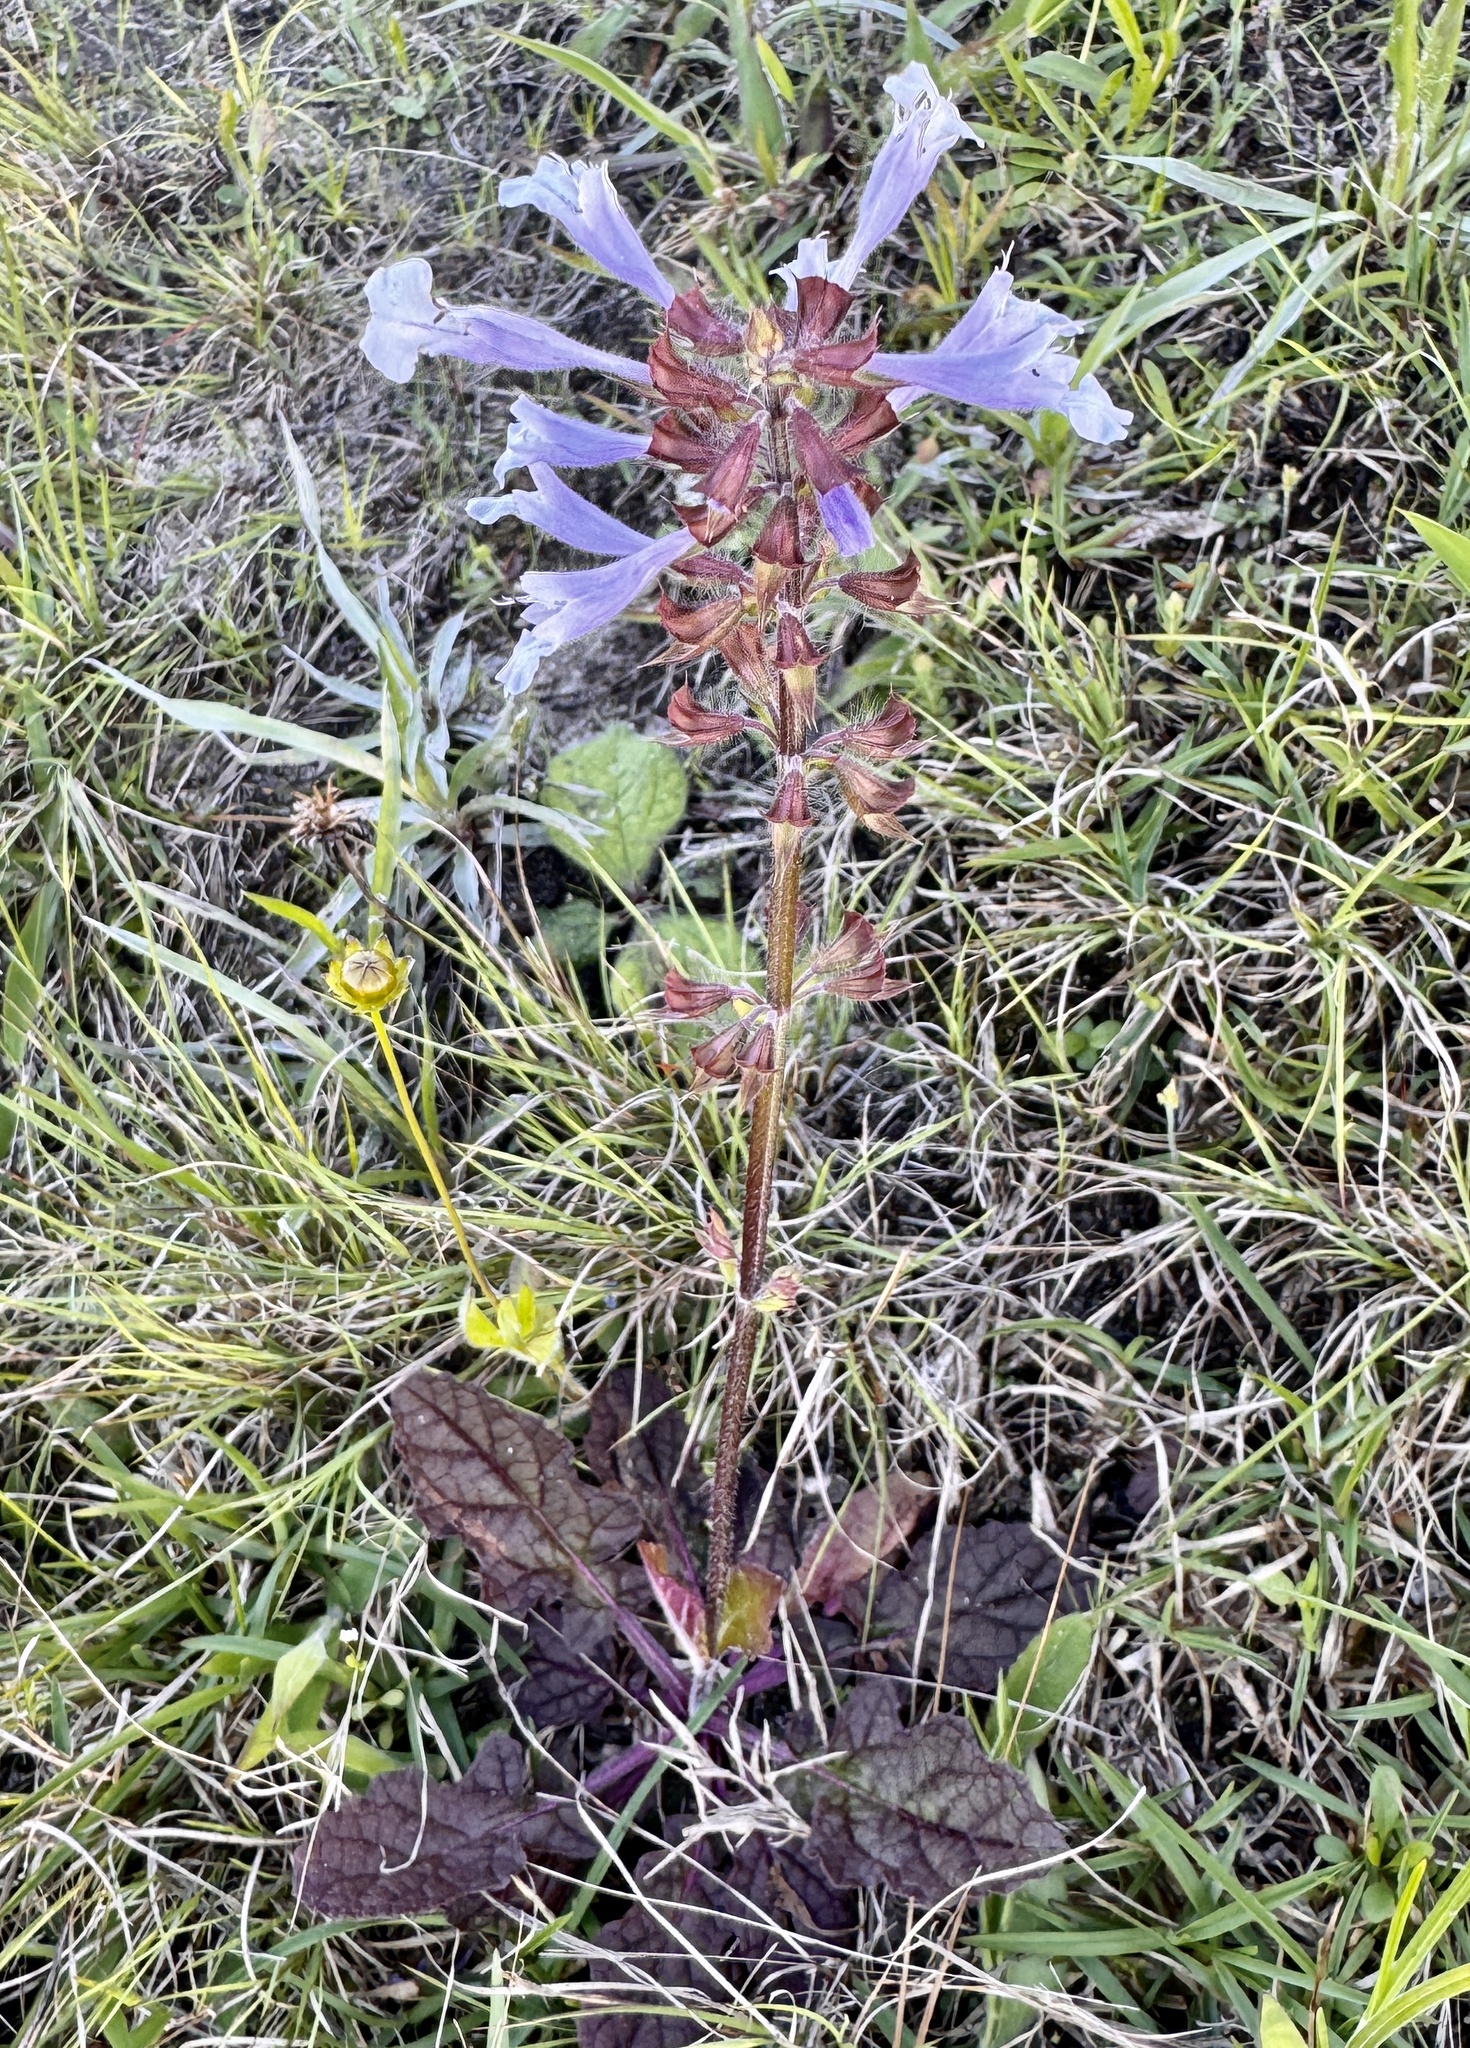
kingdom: Plantae
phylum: Tracheophyta
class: Magnoliopsida
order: Lamiales
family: Lamiaceae
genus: Salvia
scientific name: Salvia lyrata
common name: Cancerweed
